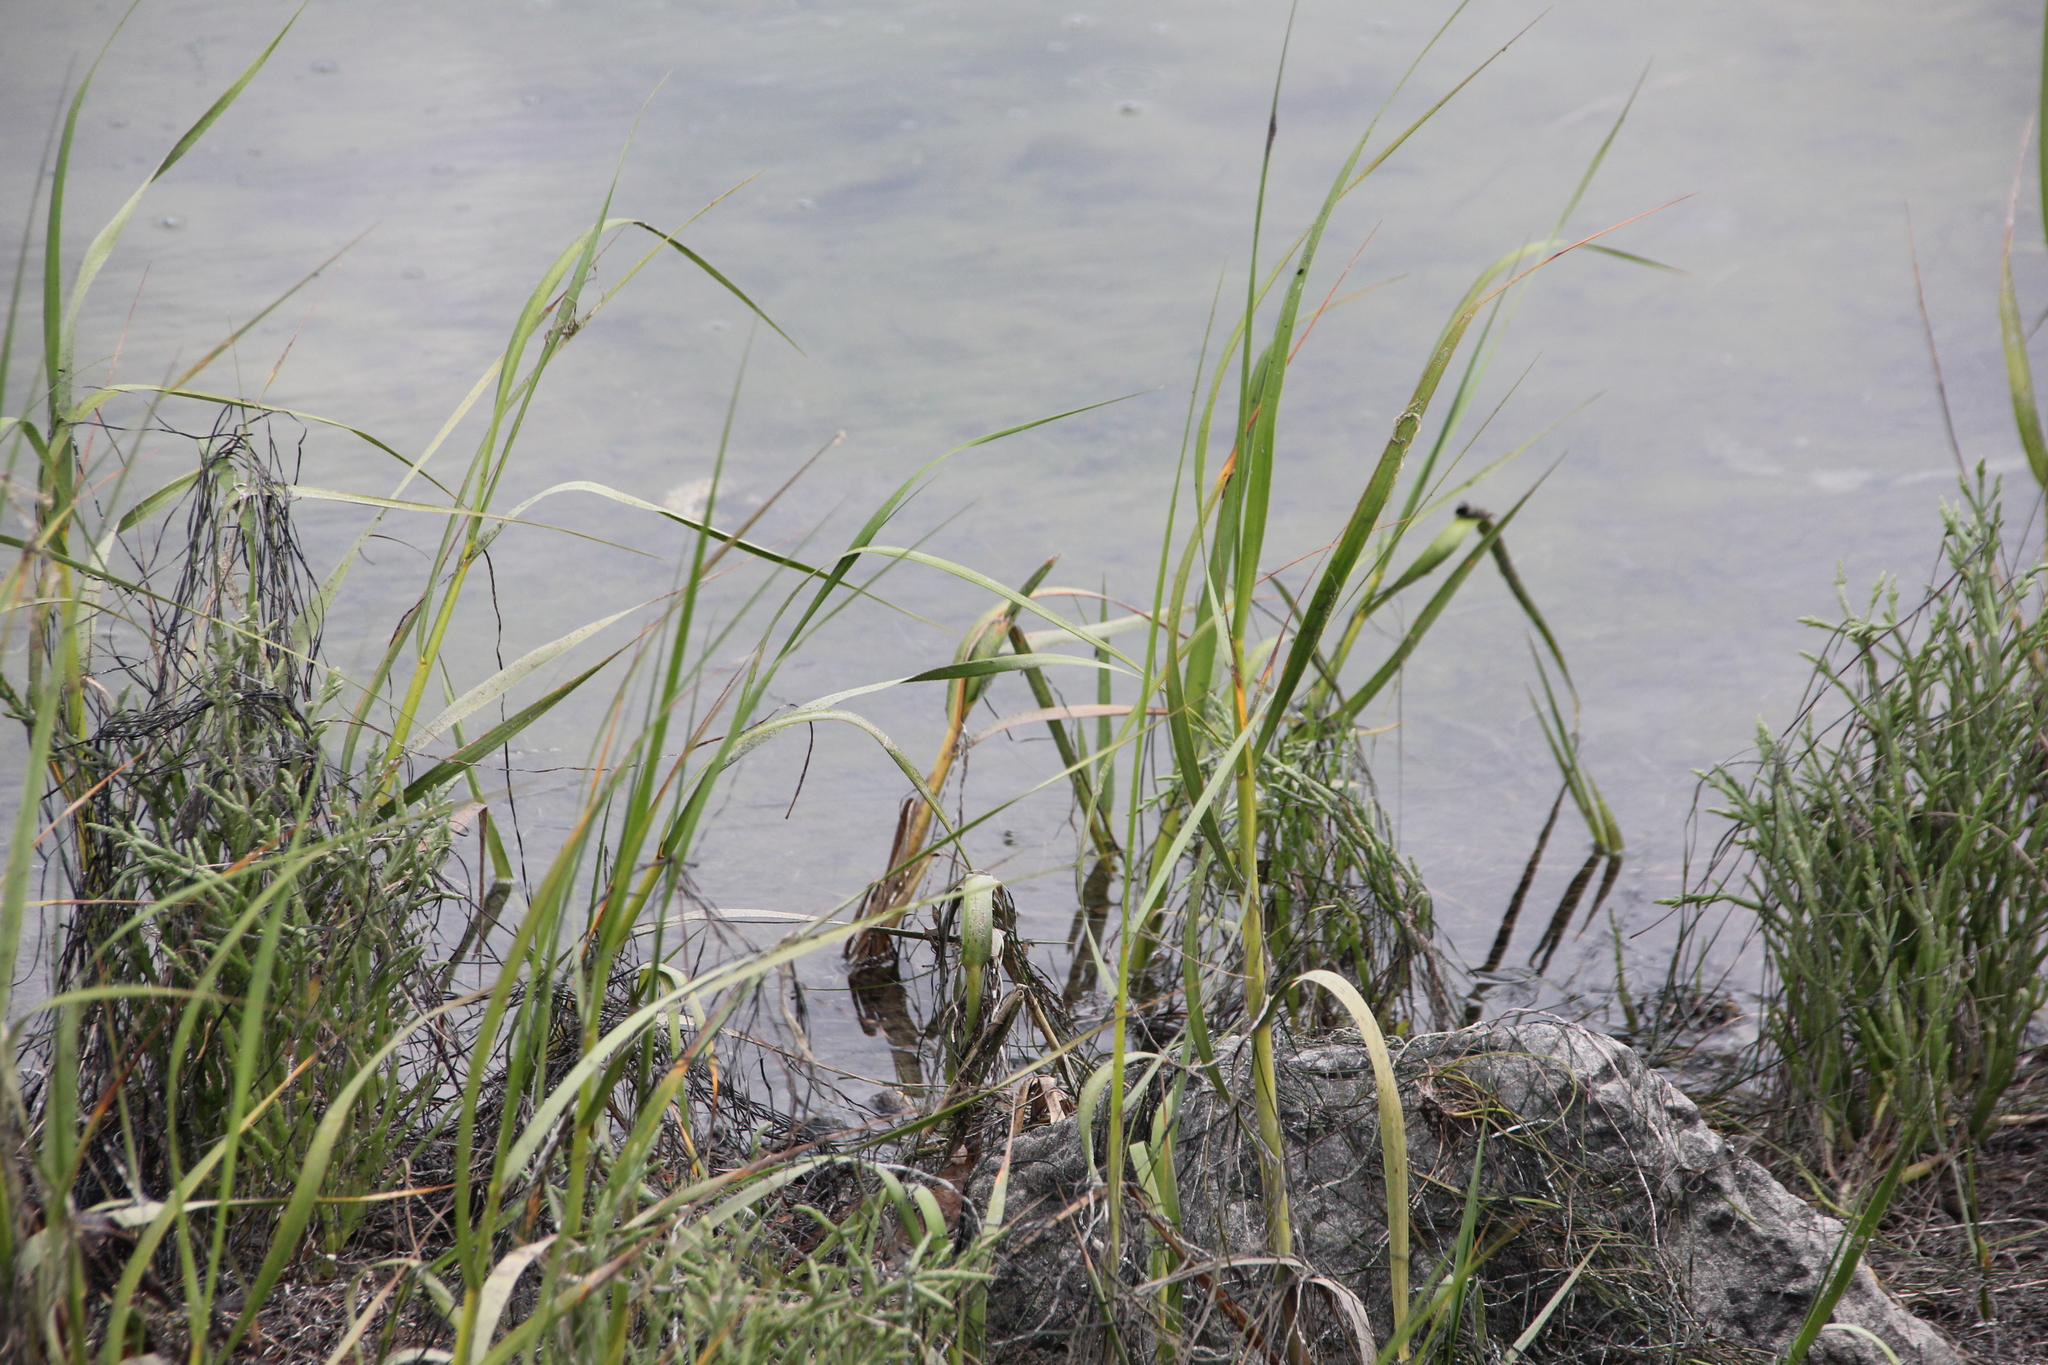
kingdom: Plantae
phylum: Tracheophyta
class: Liliopsida
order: Poales
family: Poaceae
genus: Sporobolus
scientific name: Sporobolus foliosus
